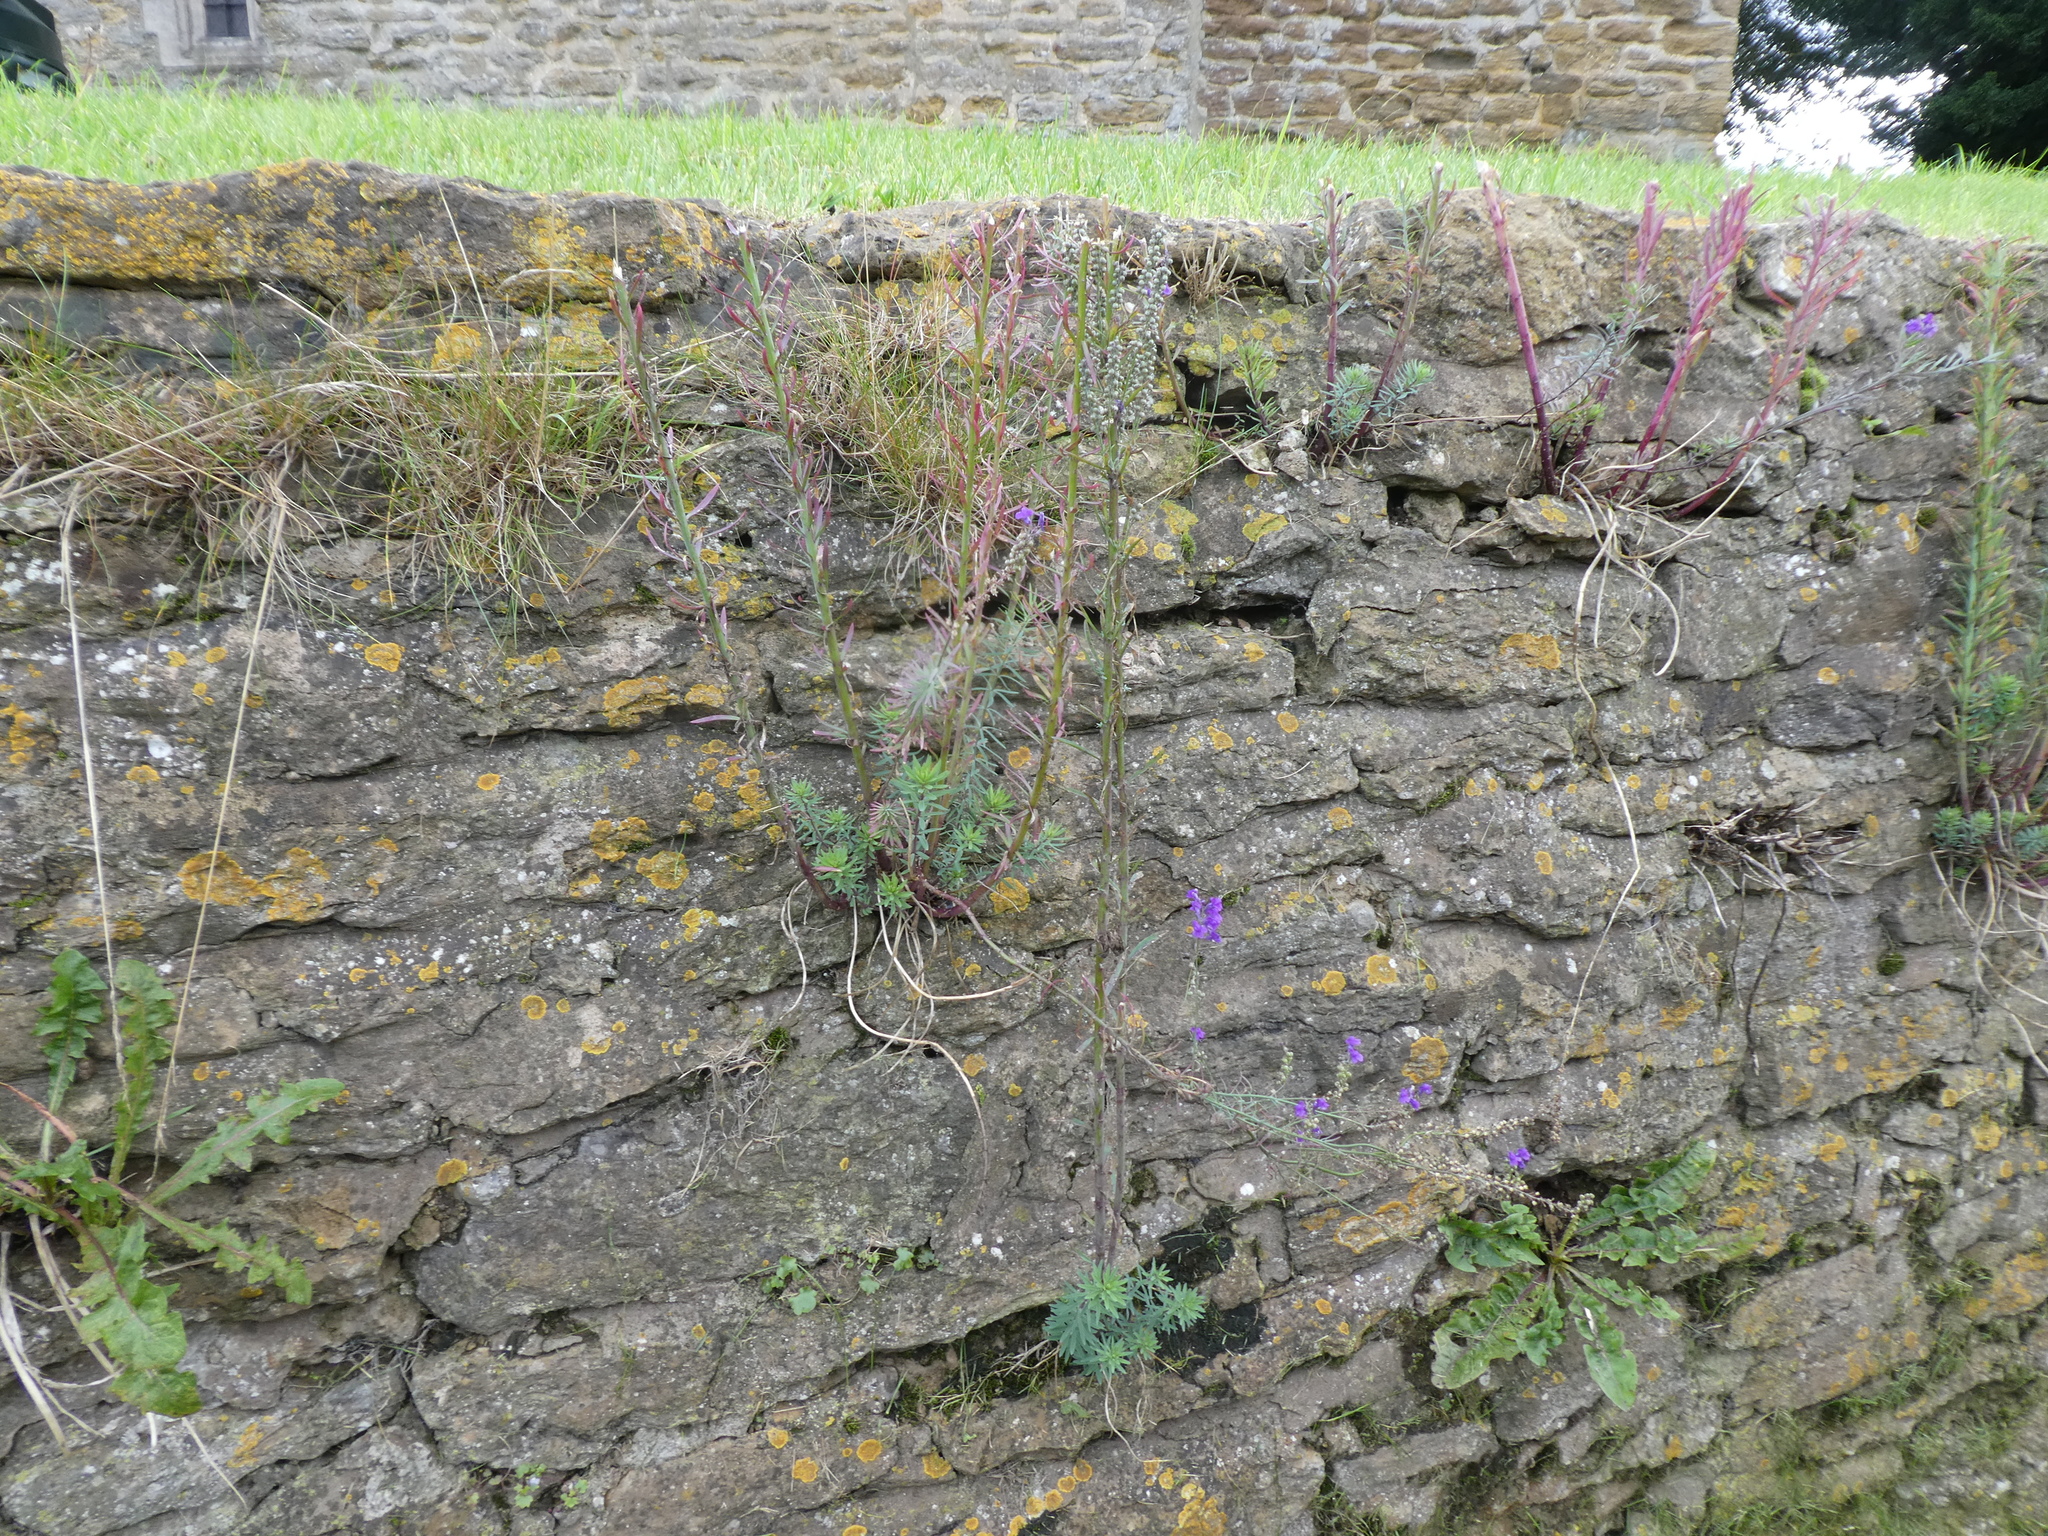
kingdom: Plantae
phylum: Tracheophyta
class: Magnoliopsida
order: Lamiales
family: Plantaginaceae
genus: Linaria
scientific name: Linaria purpurea
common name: Purple toadflax
